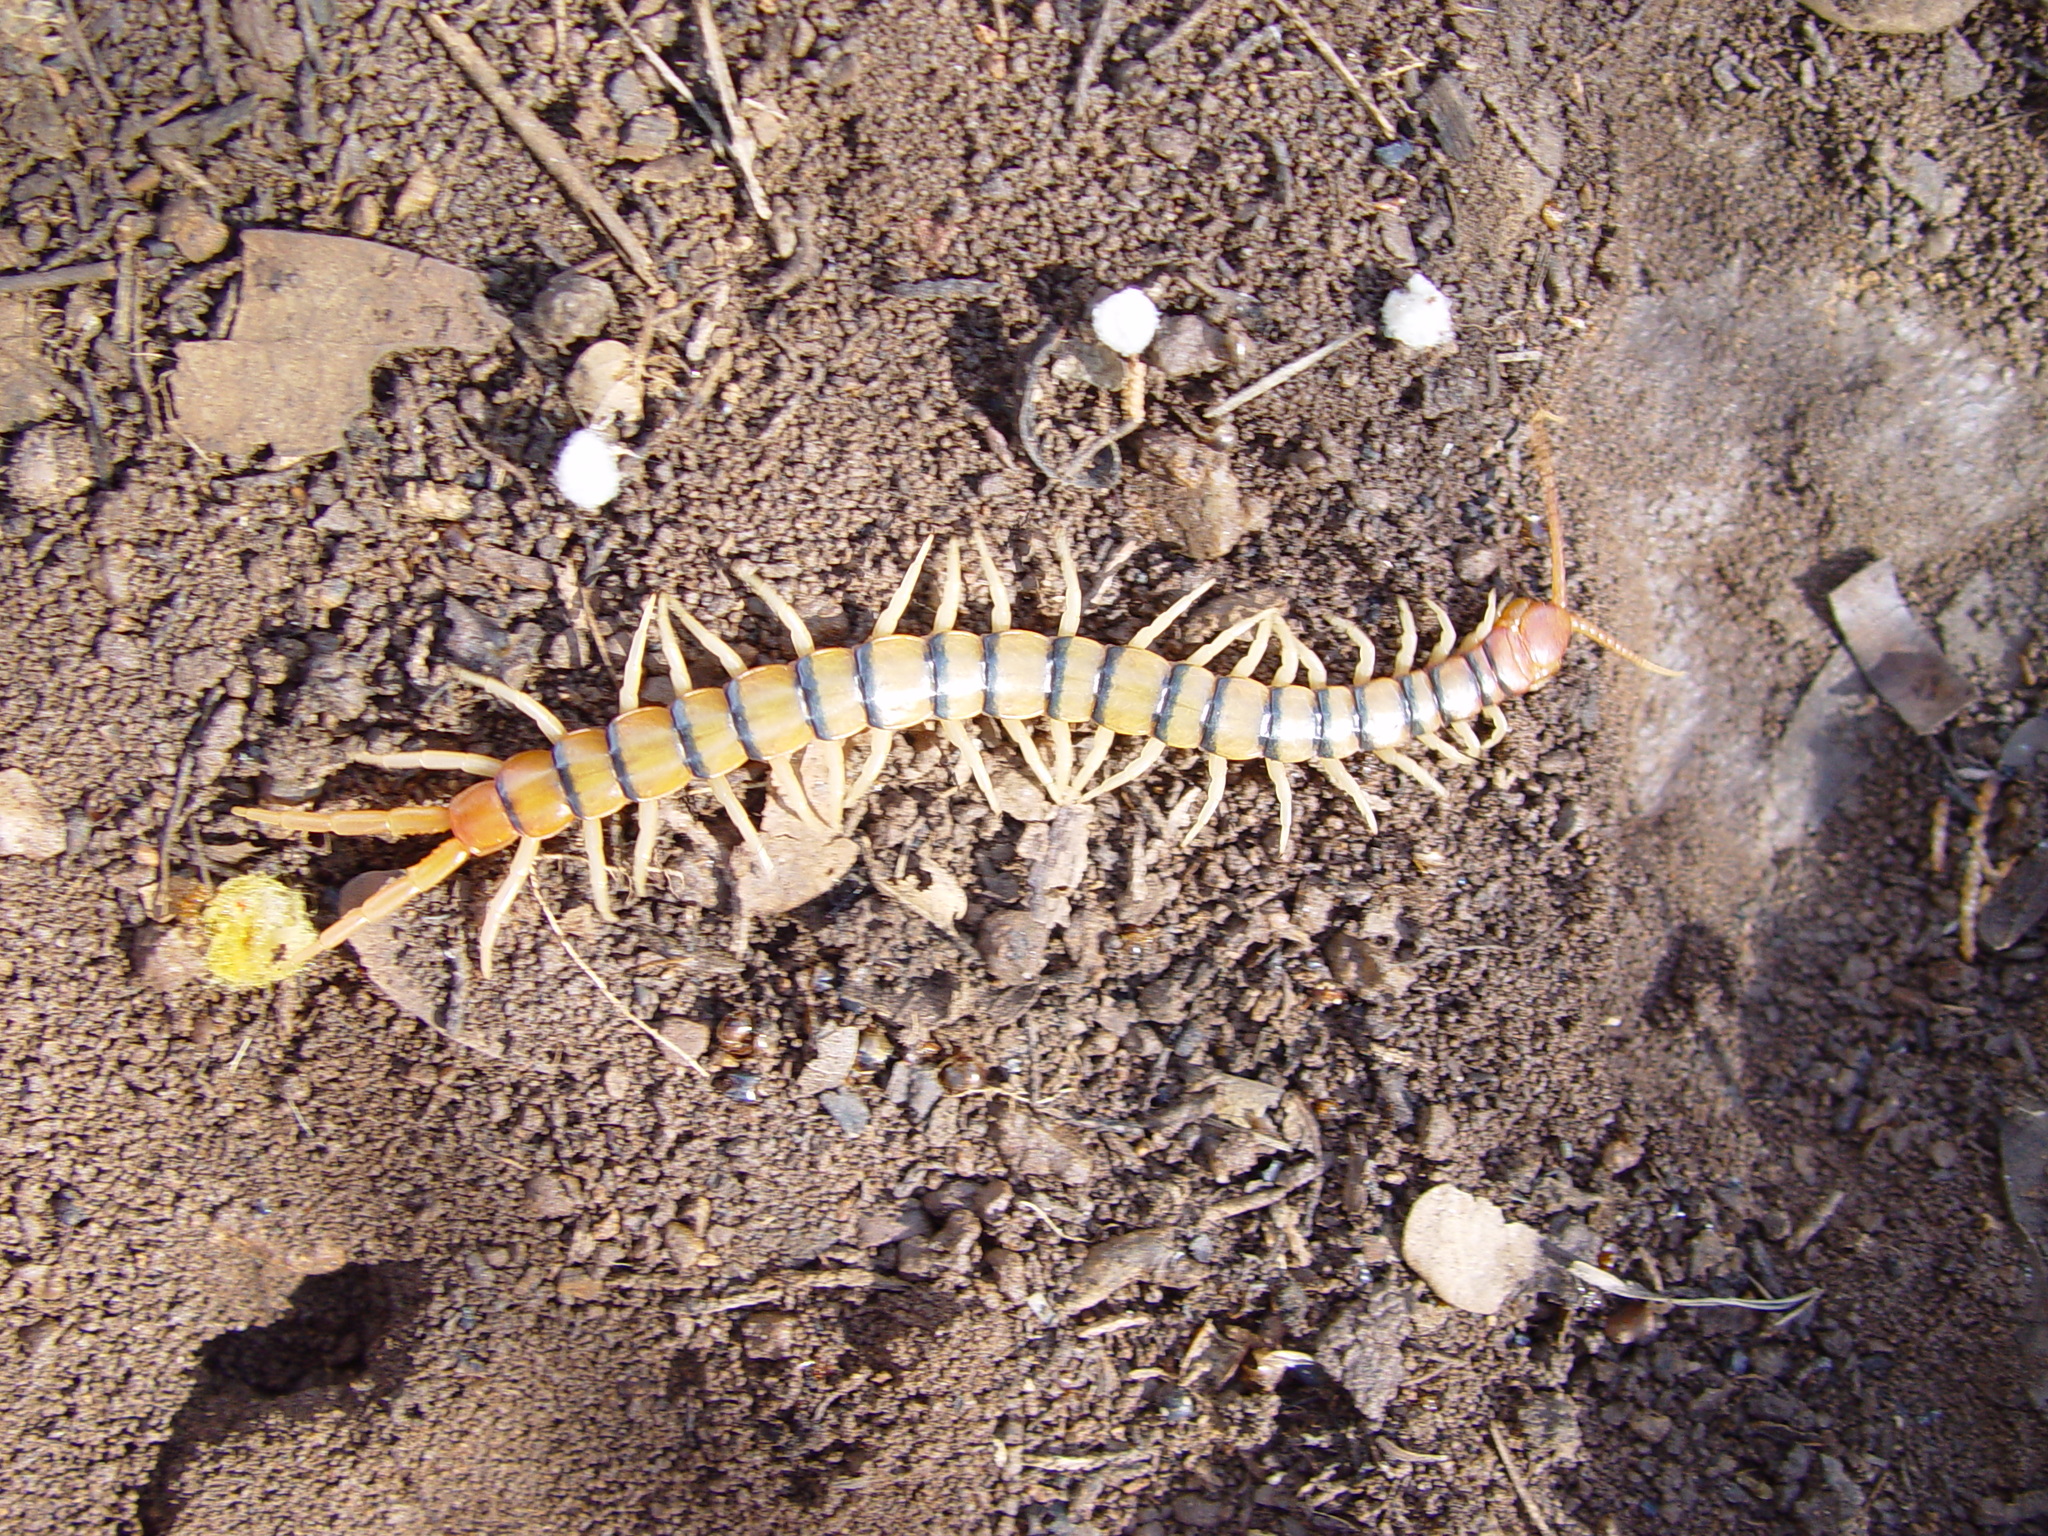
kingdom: Animalia
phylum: Arthropoda
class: Chilopoda
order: Scolopendromorpha
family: Scolopendridae
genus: Scolopendra
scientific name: Scolopendra polymorpha
